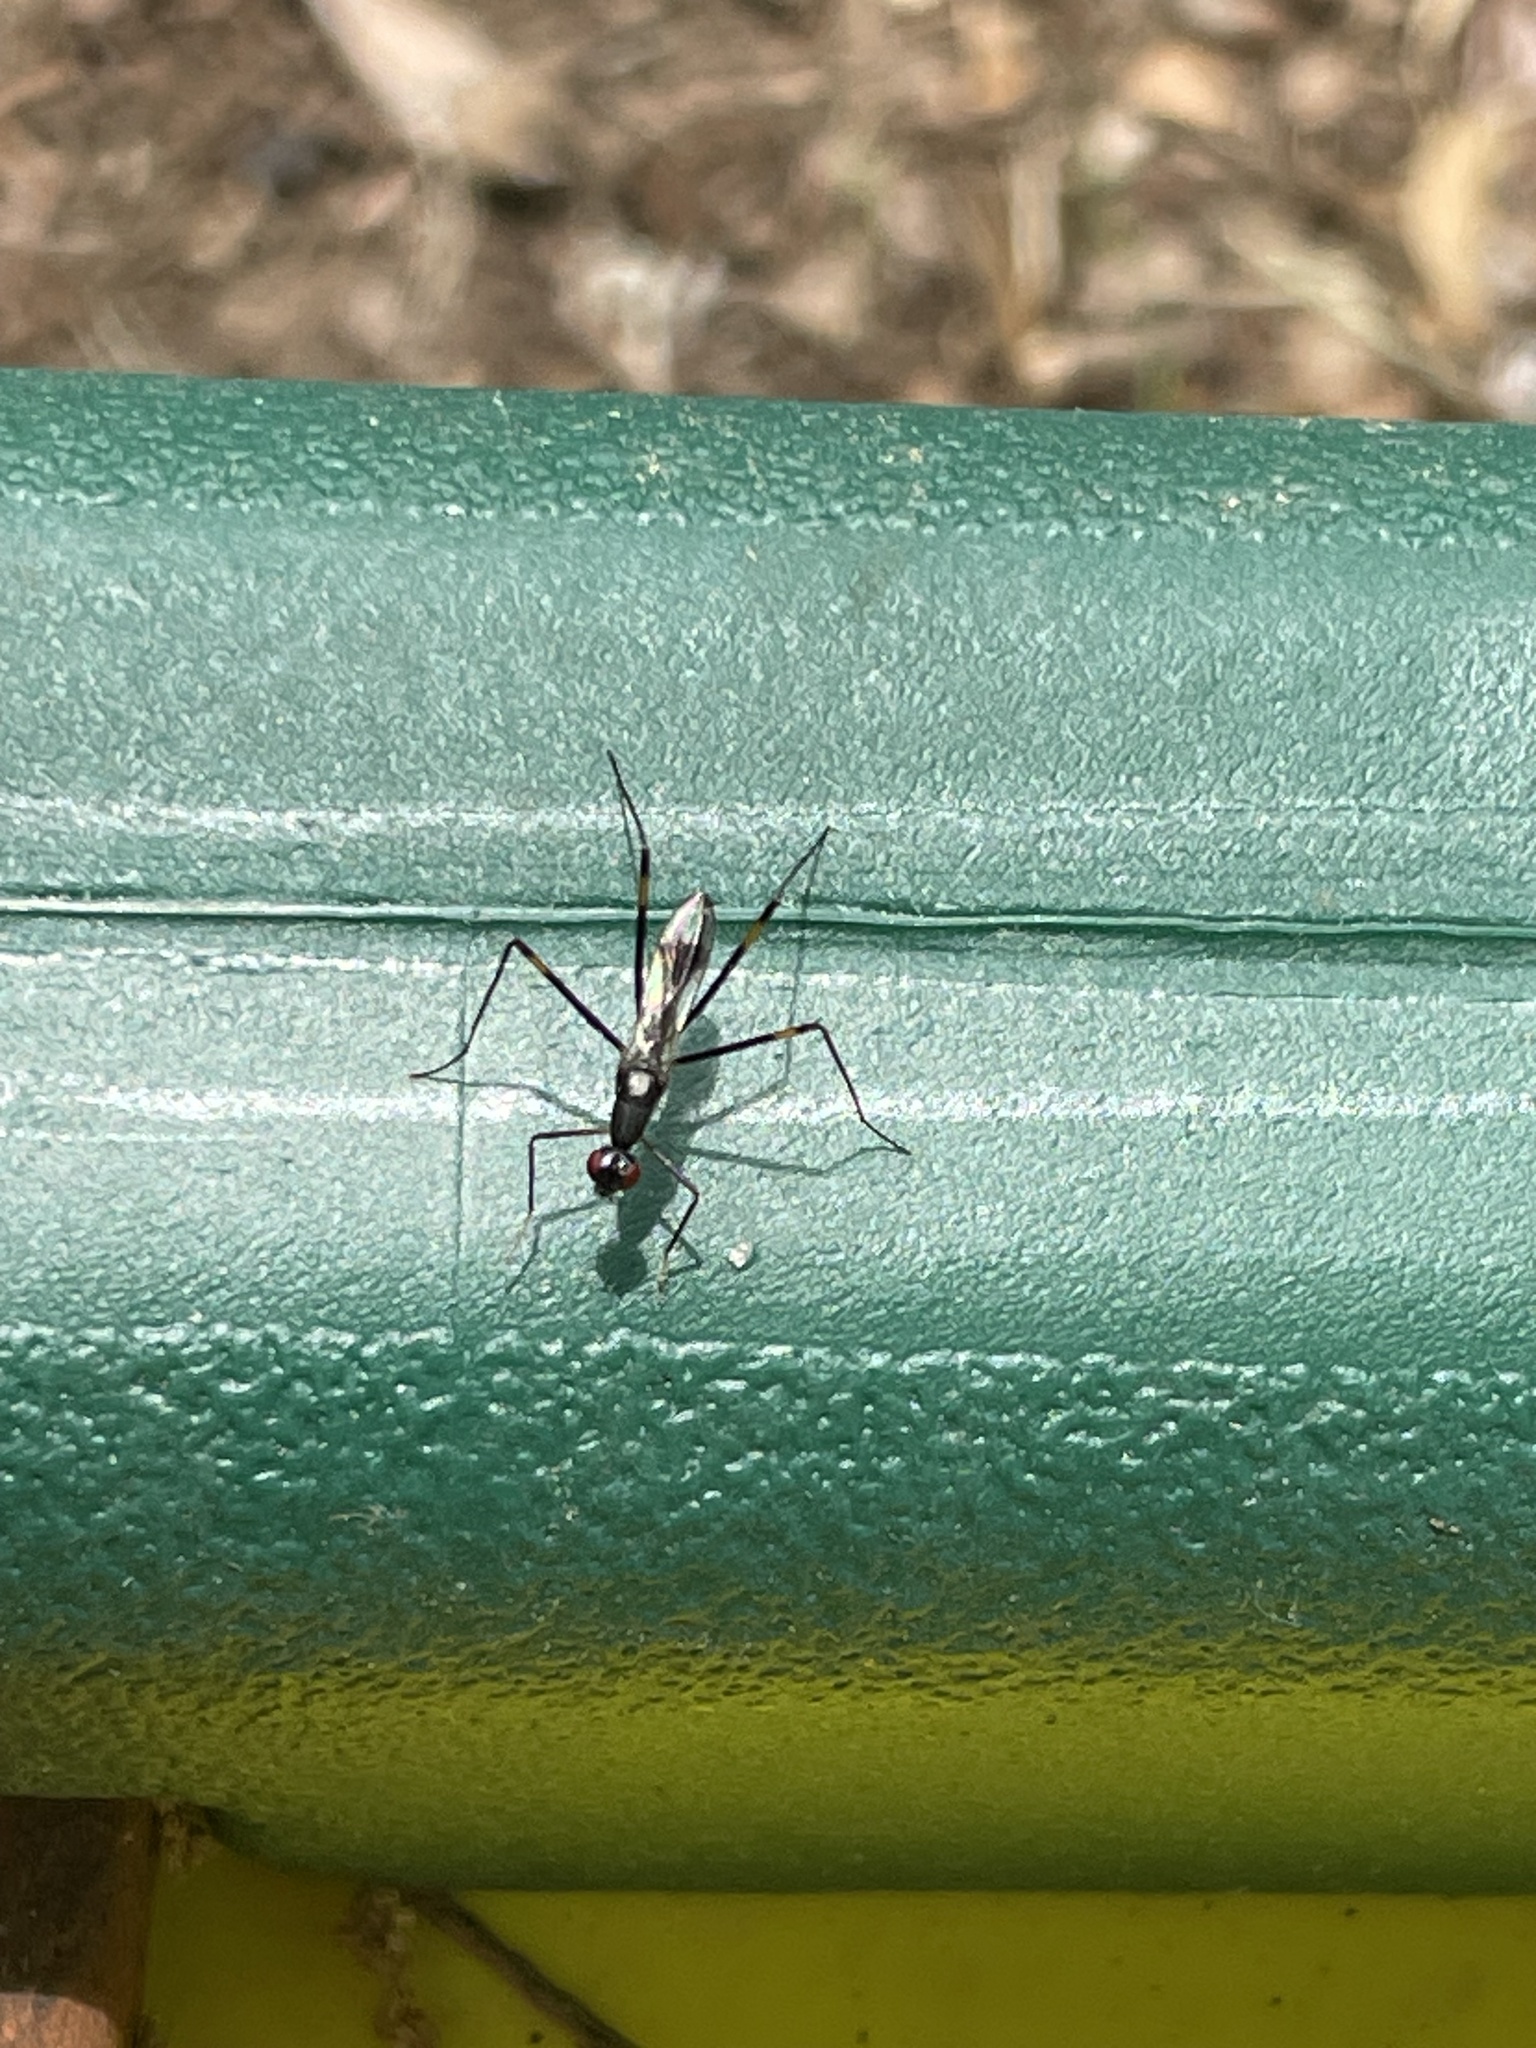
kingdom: Animalia
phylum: Arthropoda
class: Insecta
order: Diptera
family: Micropezidae
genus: Rainieria
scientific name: Rainieria antennaepes
